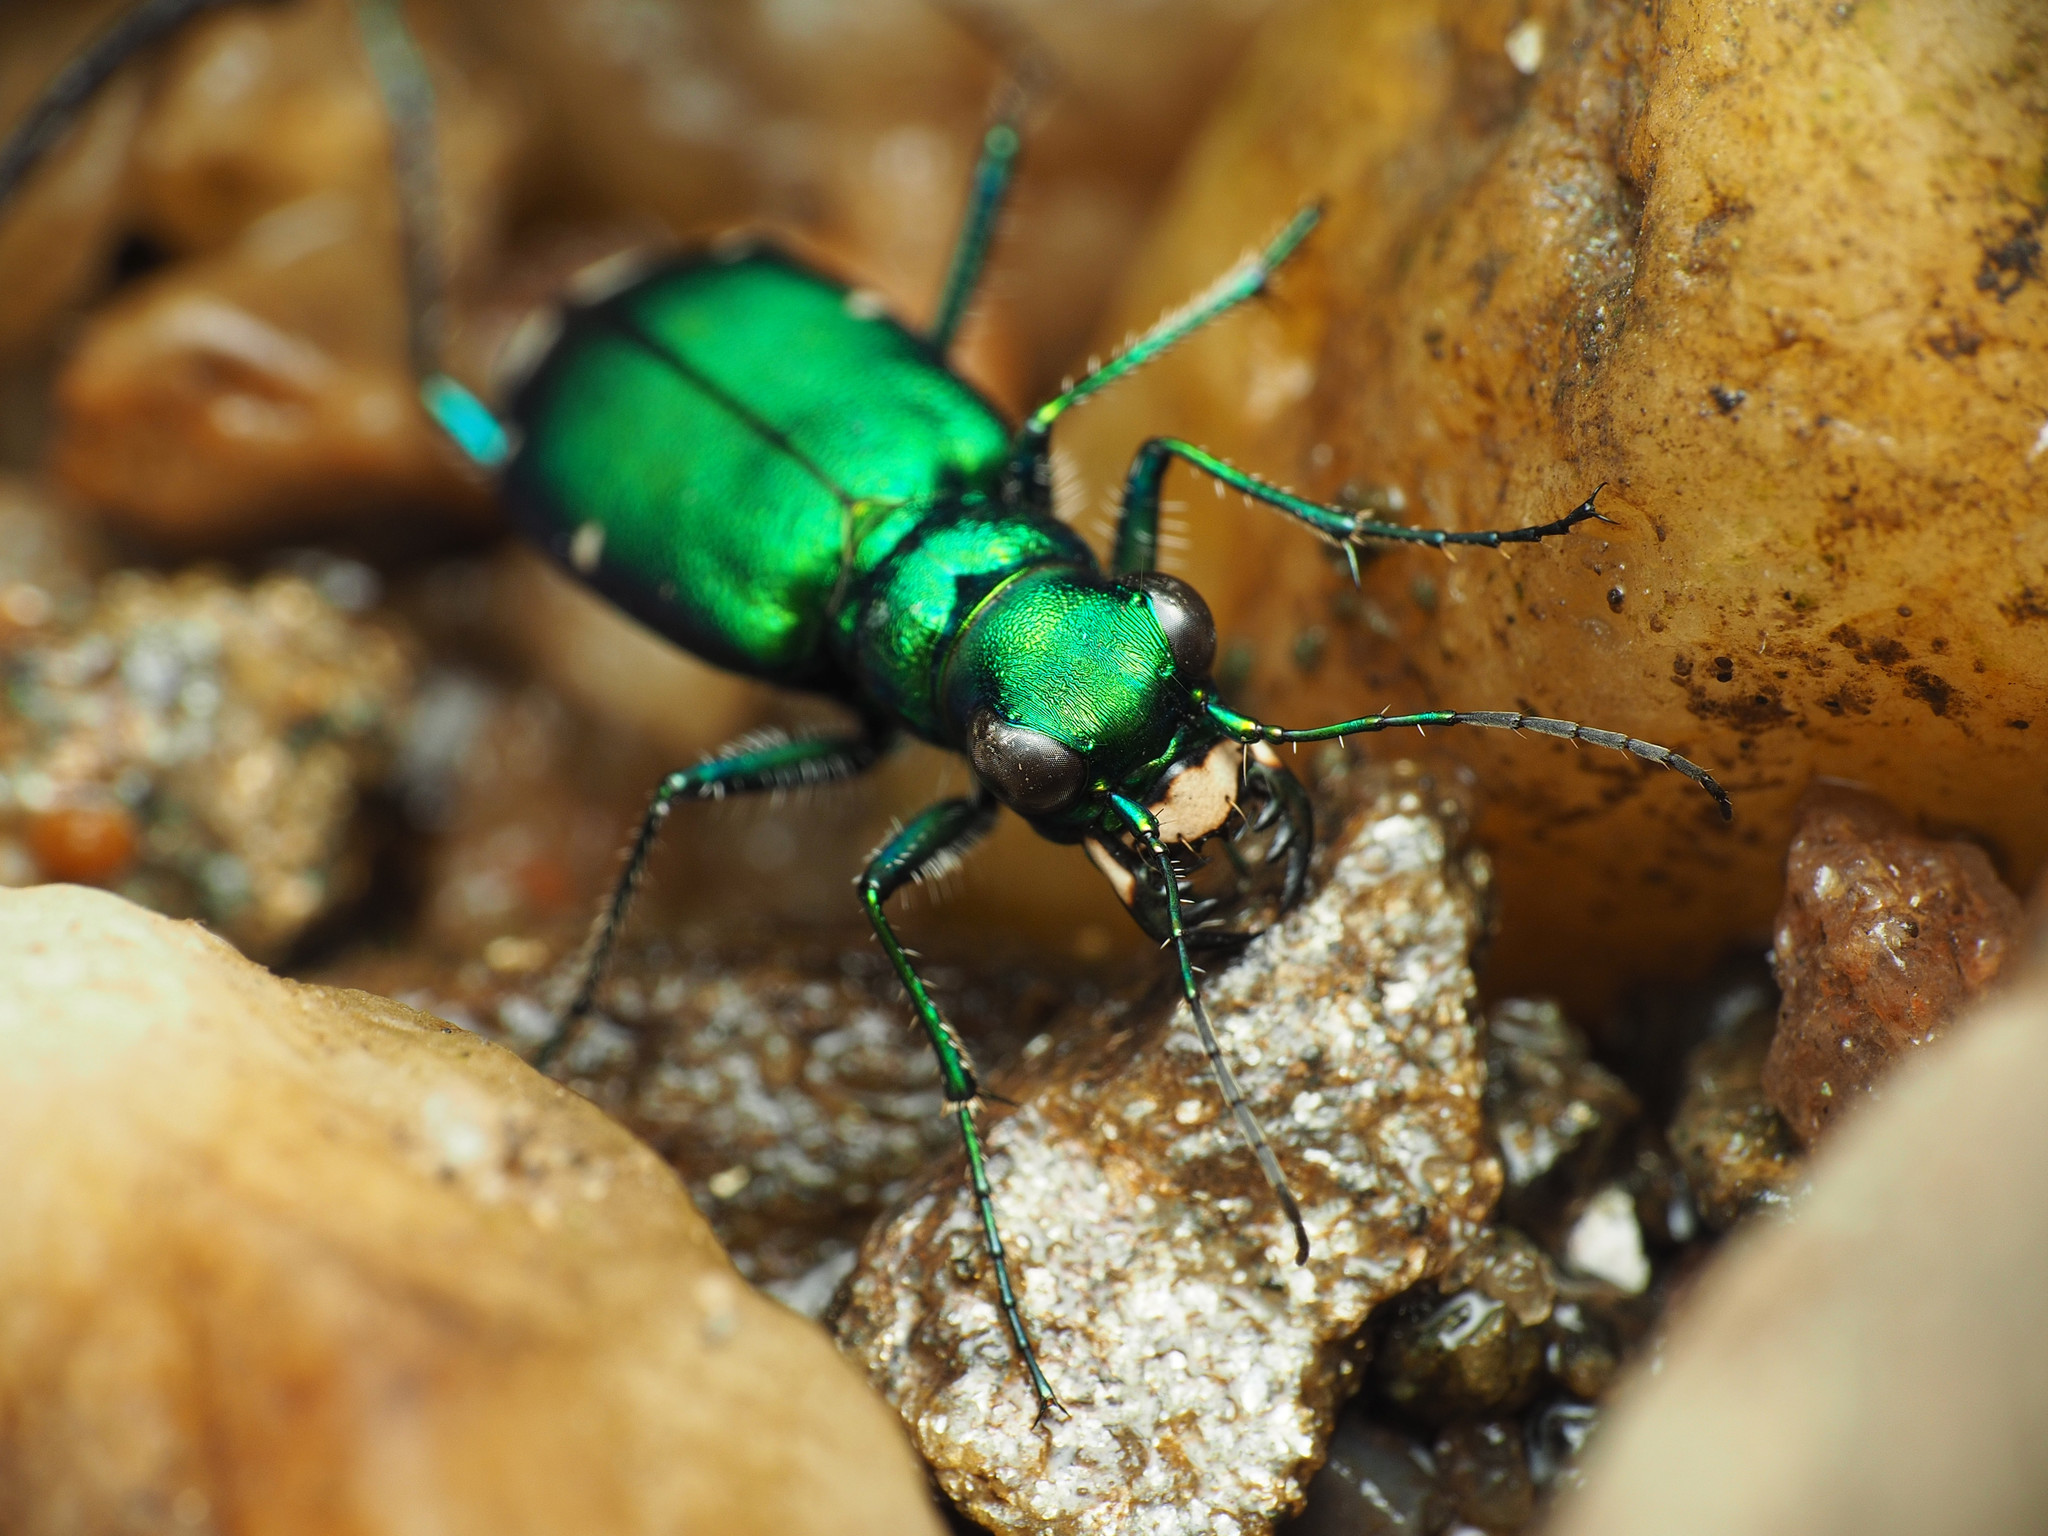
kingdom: Animalia
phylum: Arthropoda
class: Insecta
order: Coleoptera
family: Carabidae
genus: Cicindela
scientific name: Cicindela sexguttata
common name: Six-spotted tiger beetle
